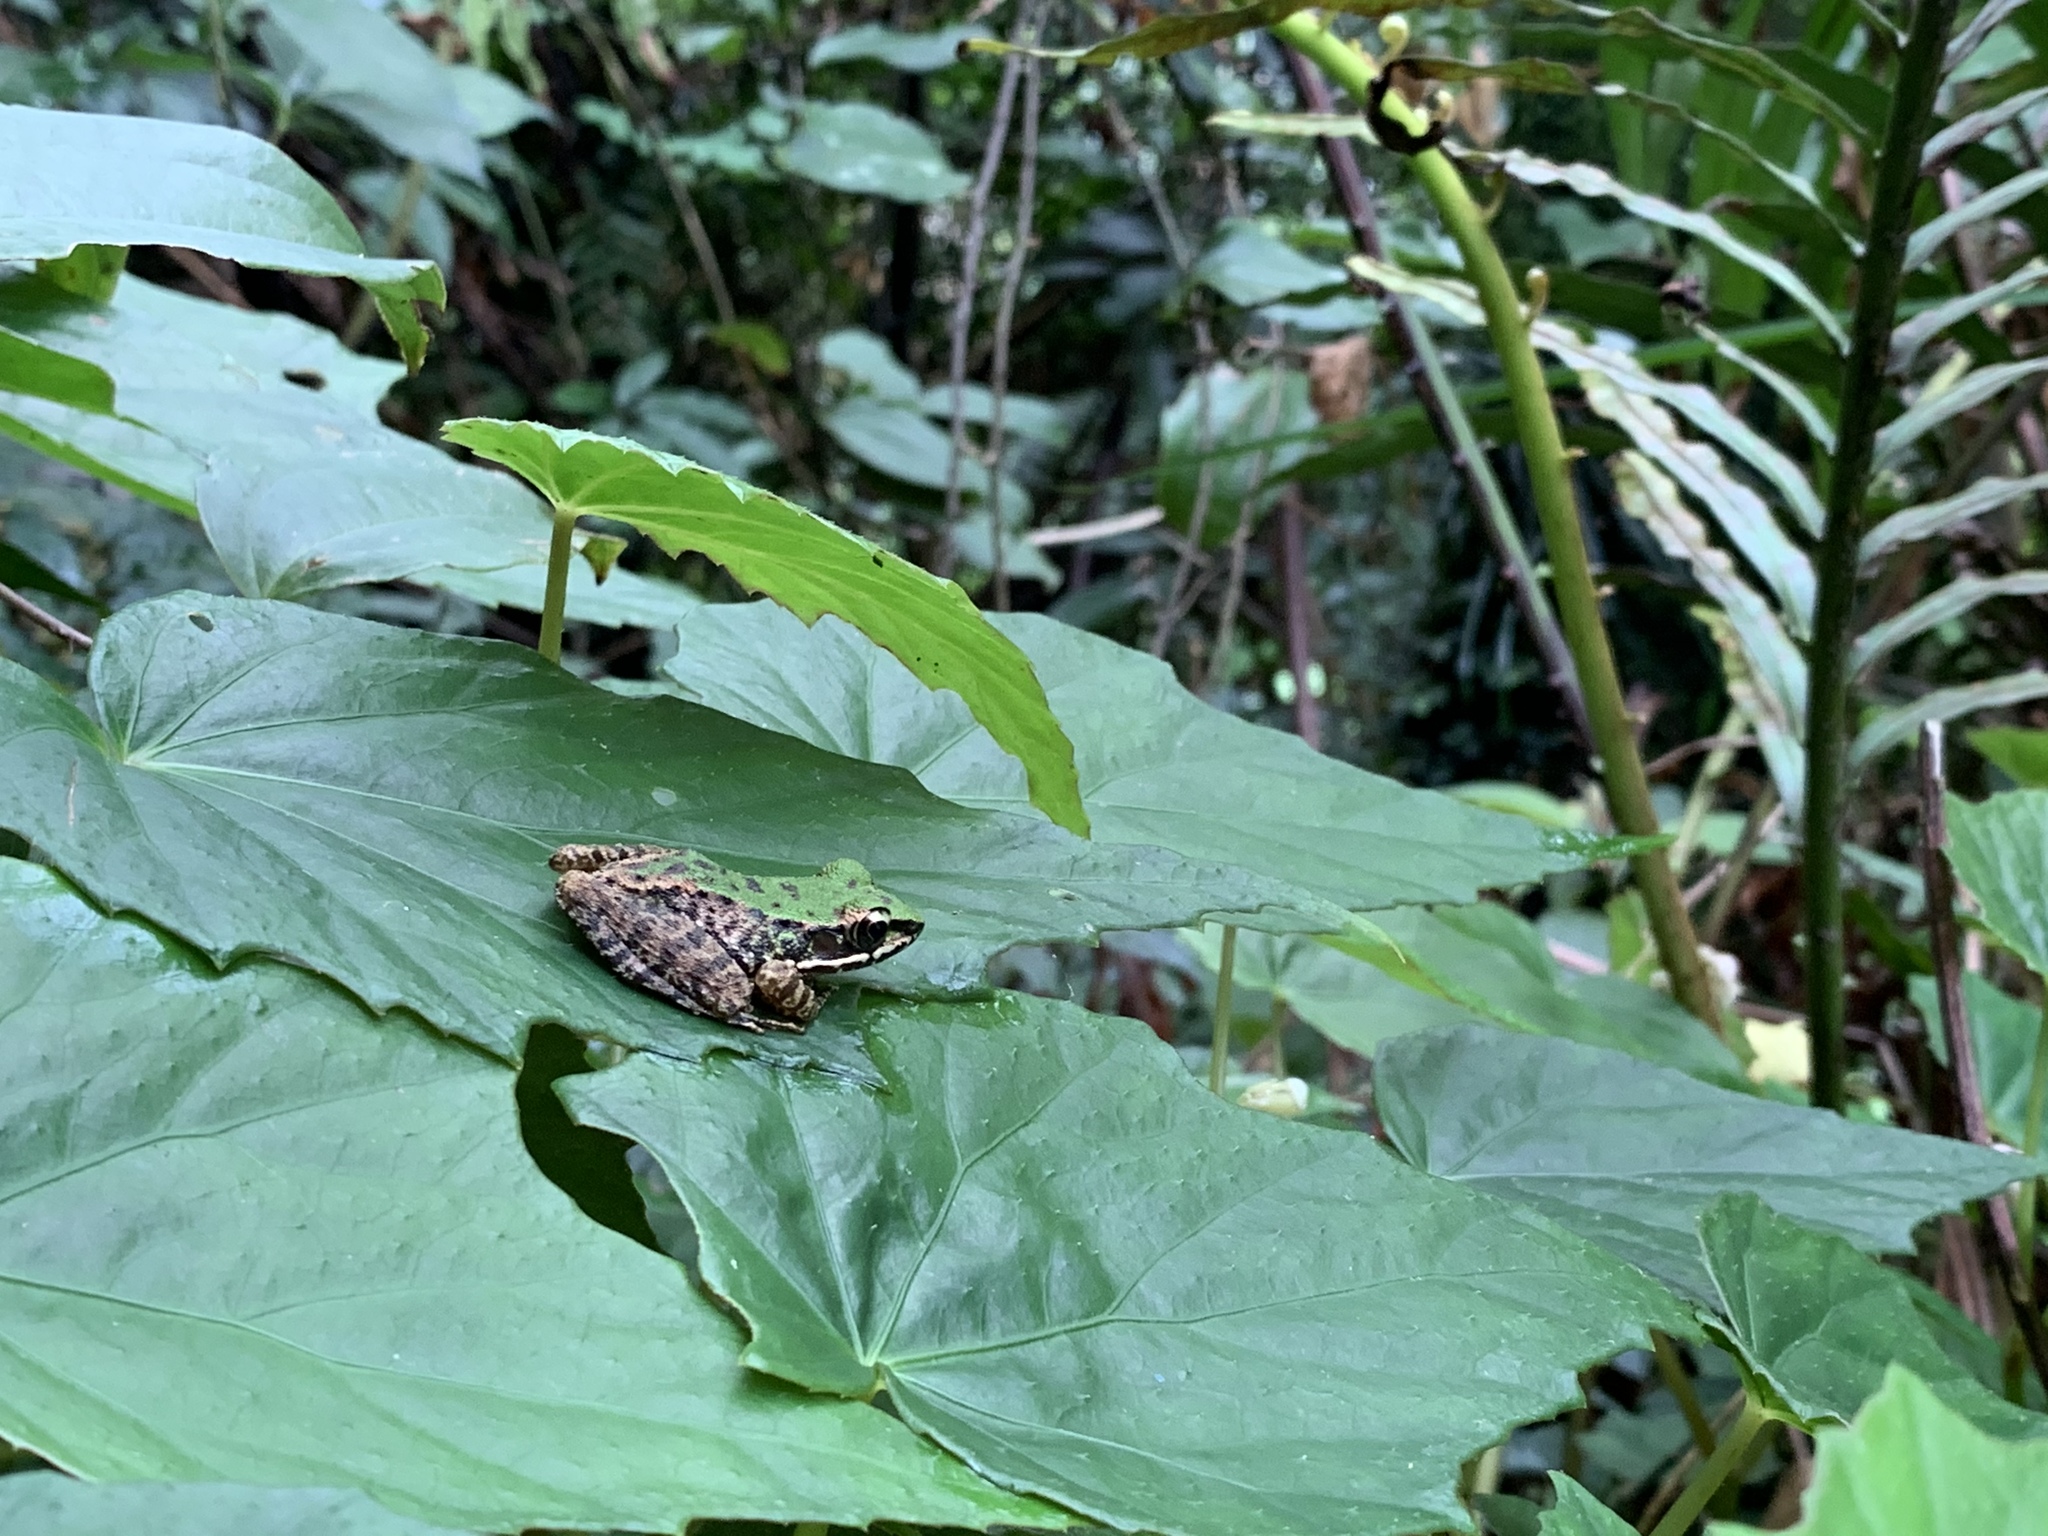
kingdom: Animalia
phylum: Chordata
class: Amphibia
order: Anura
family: Ranidae
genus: Odorrana
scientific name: Odorrana swinhoana
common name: Bangkimtsing frog
